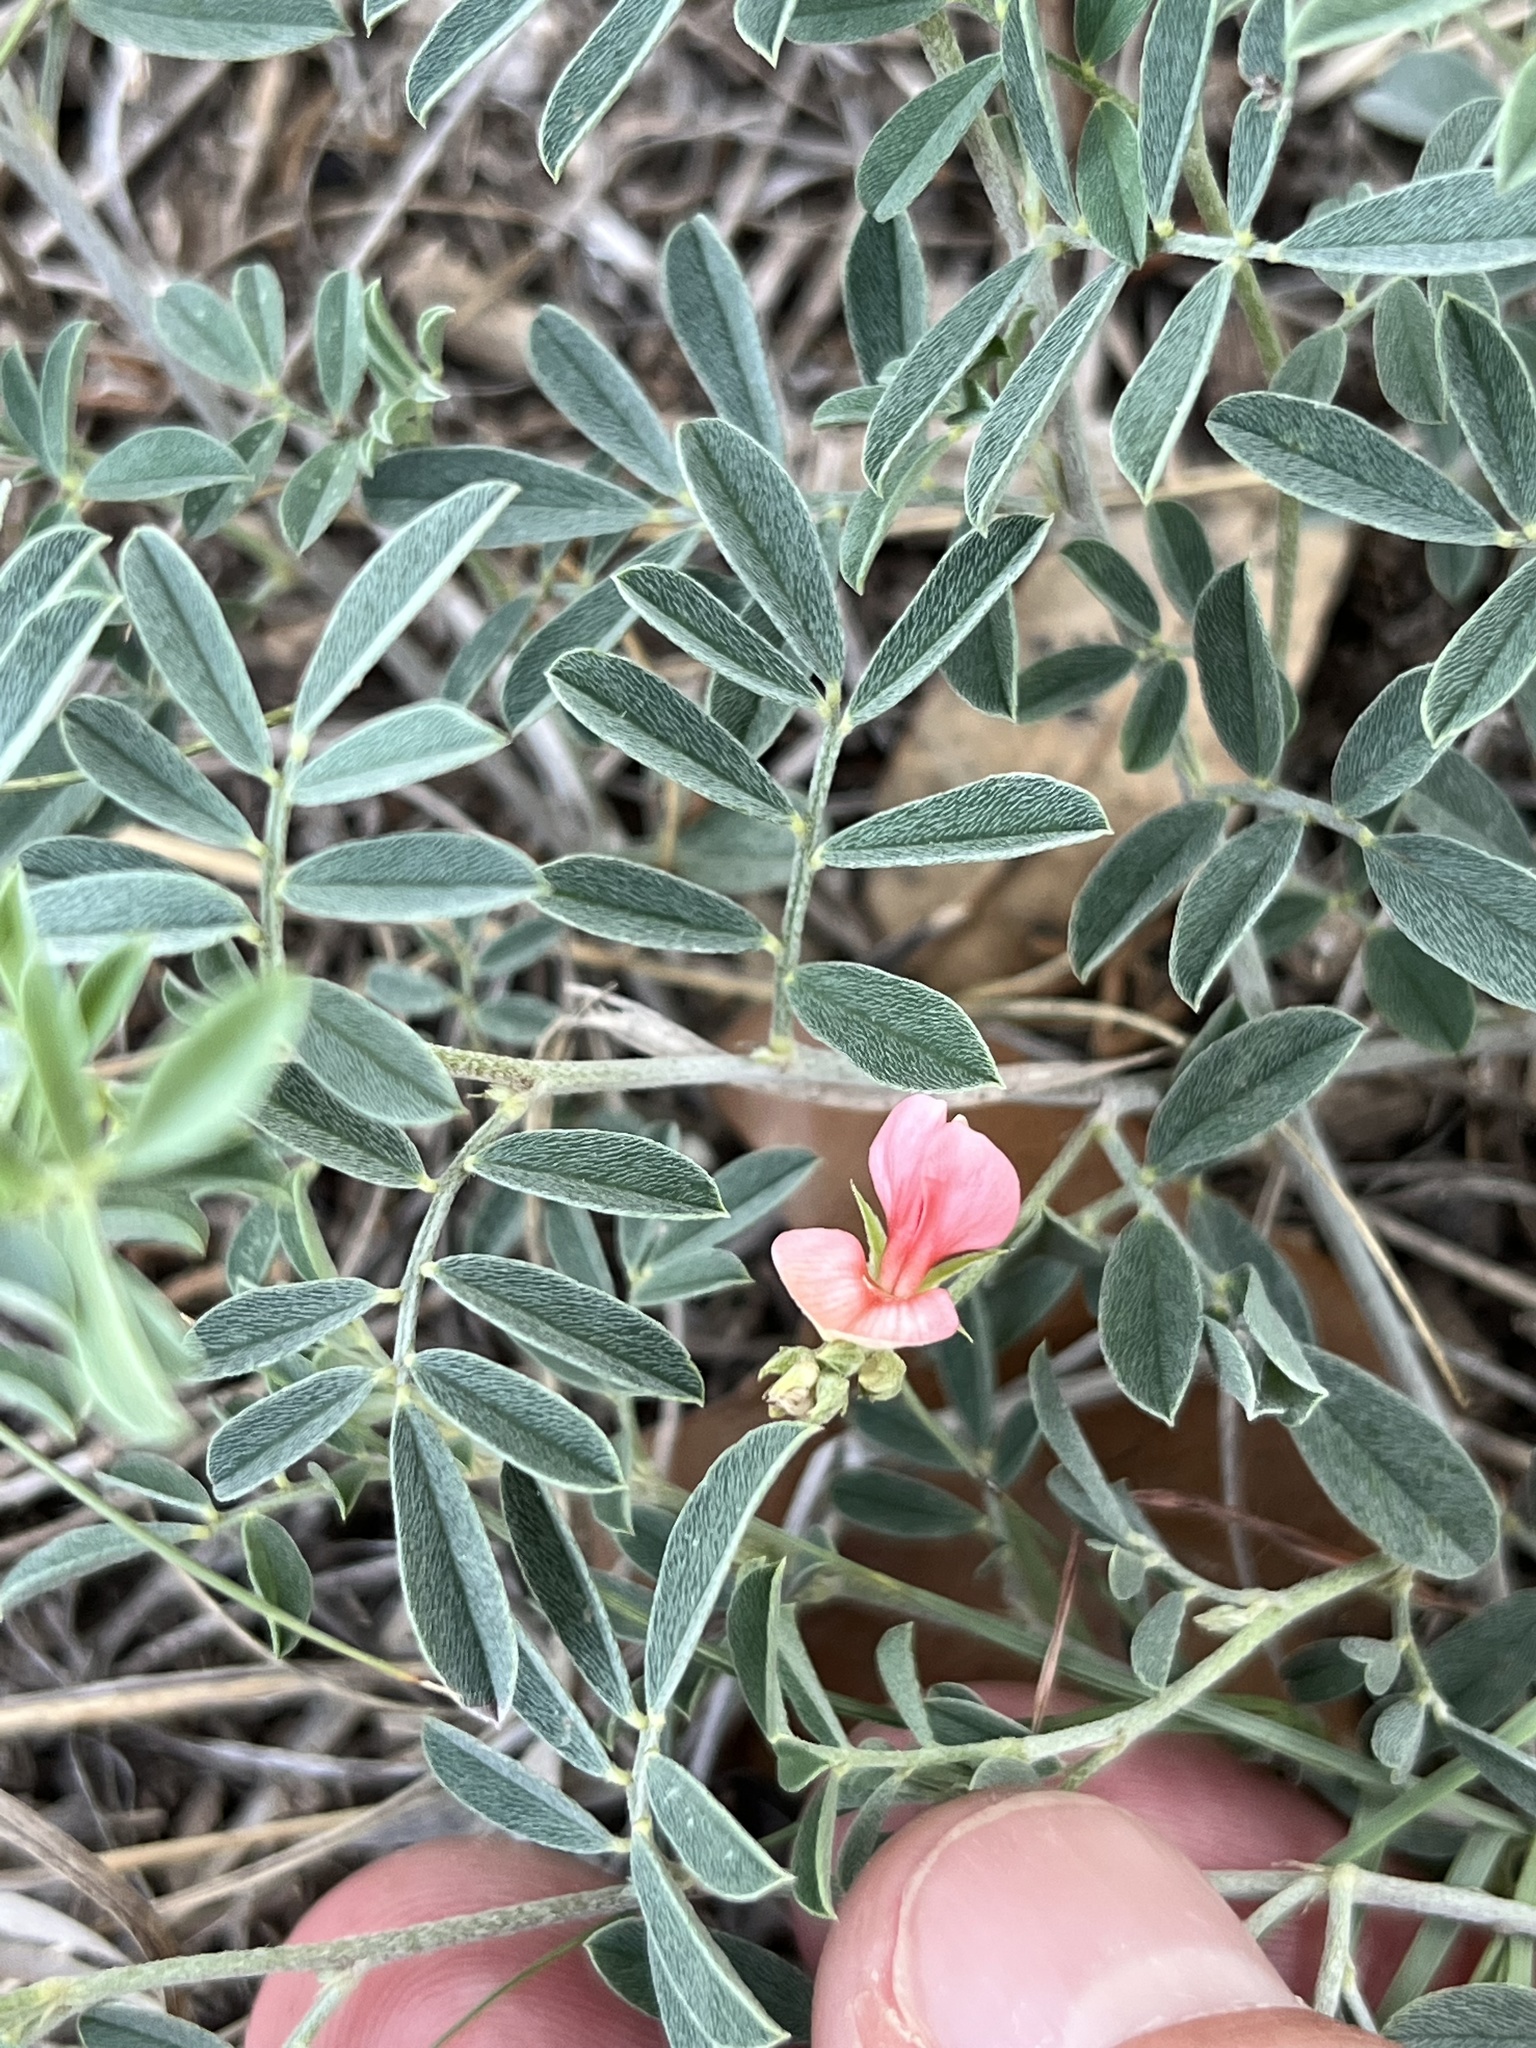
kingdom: Plantae
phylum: Tracheophyta
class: Magnoliopsida
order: Fabales
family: Fabaceae
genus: Indigofera
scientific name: Indigofera miniata
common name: Coast indigo
